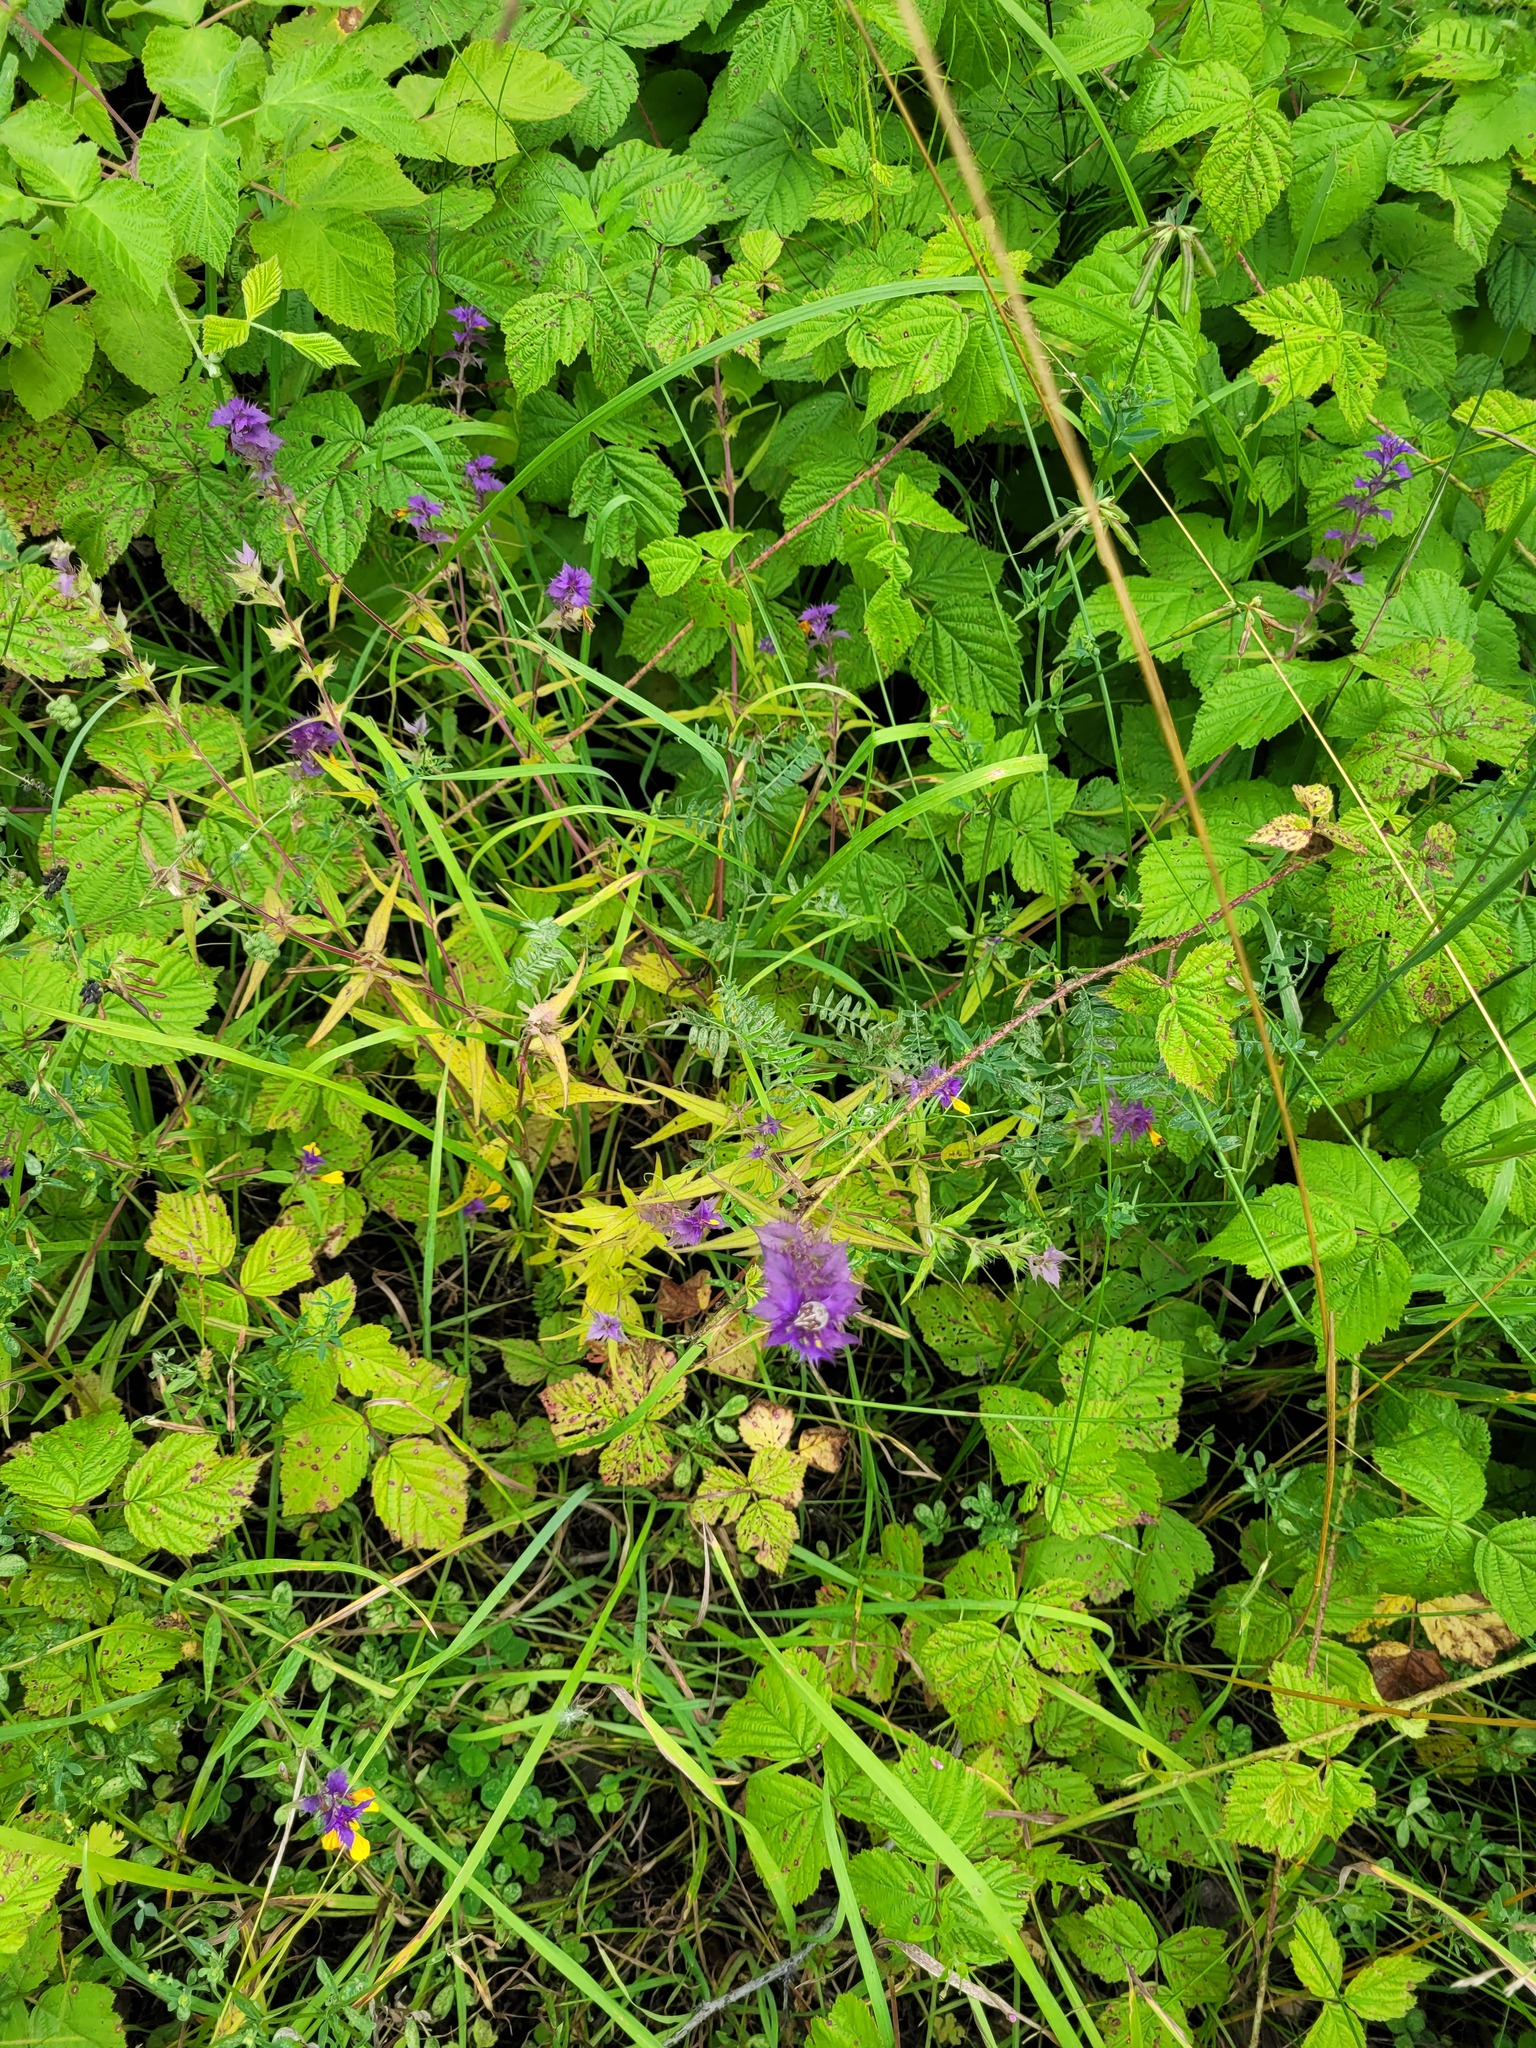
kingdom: Plantae
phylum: Tracheophyta
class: Magnoliopsida
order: Lamiales
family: Orobanchaceae
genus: Melampyrum
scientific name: Melampyrum nemorosum
